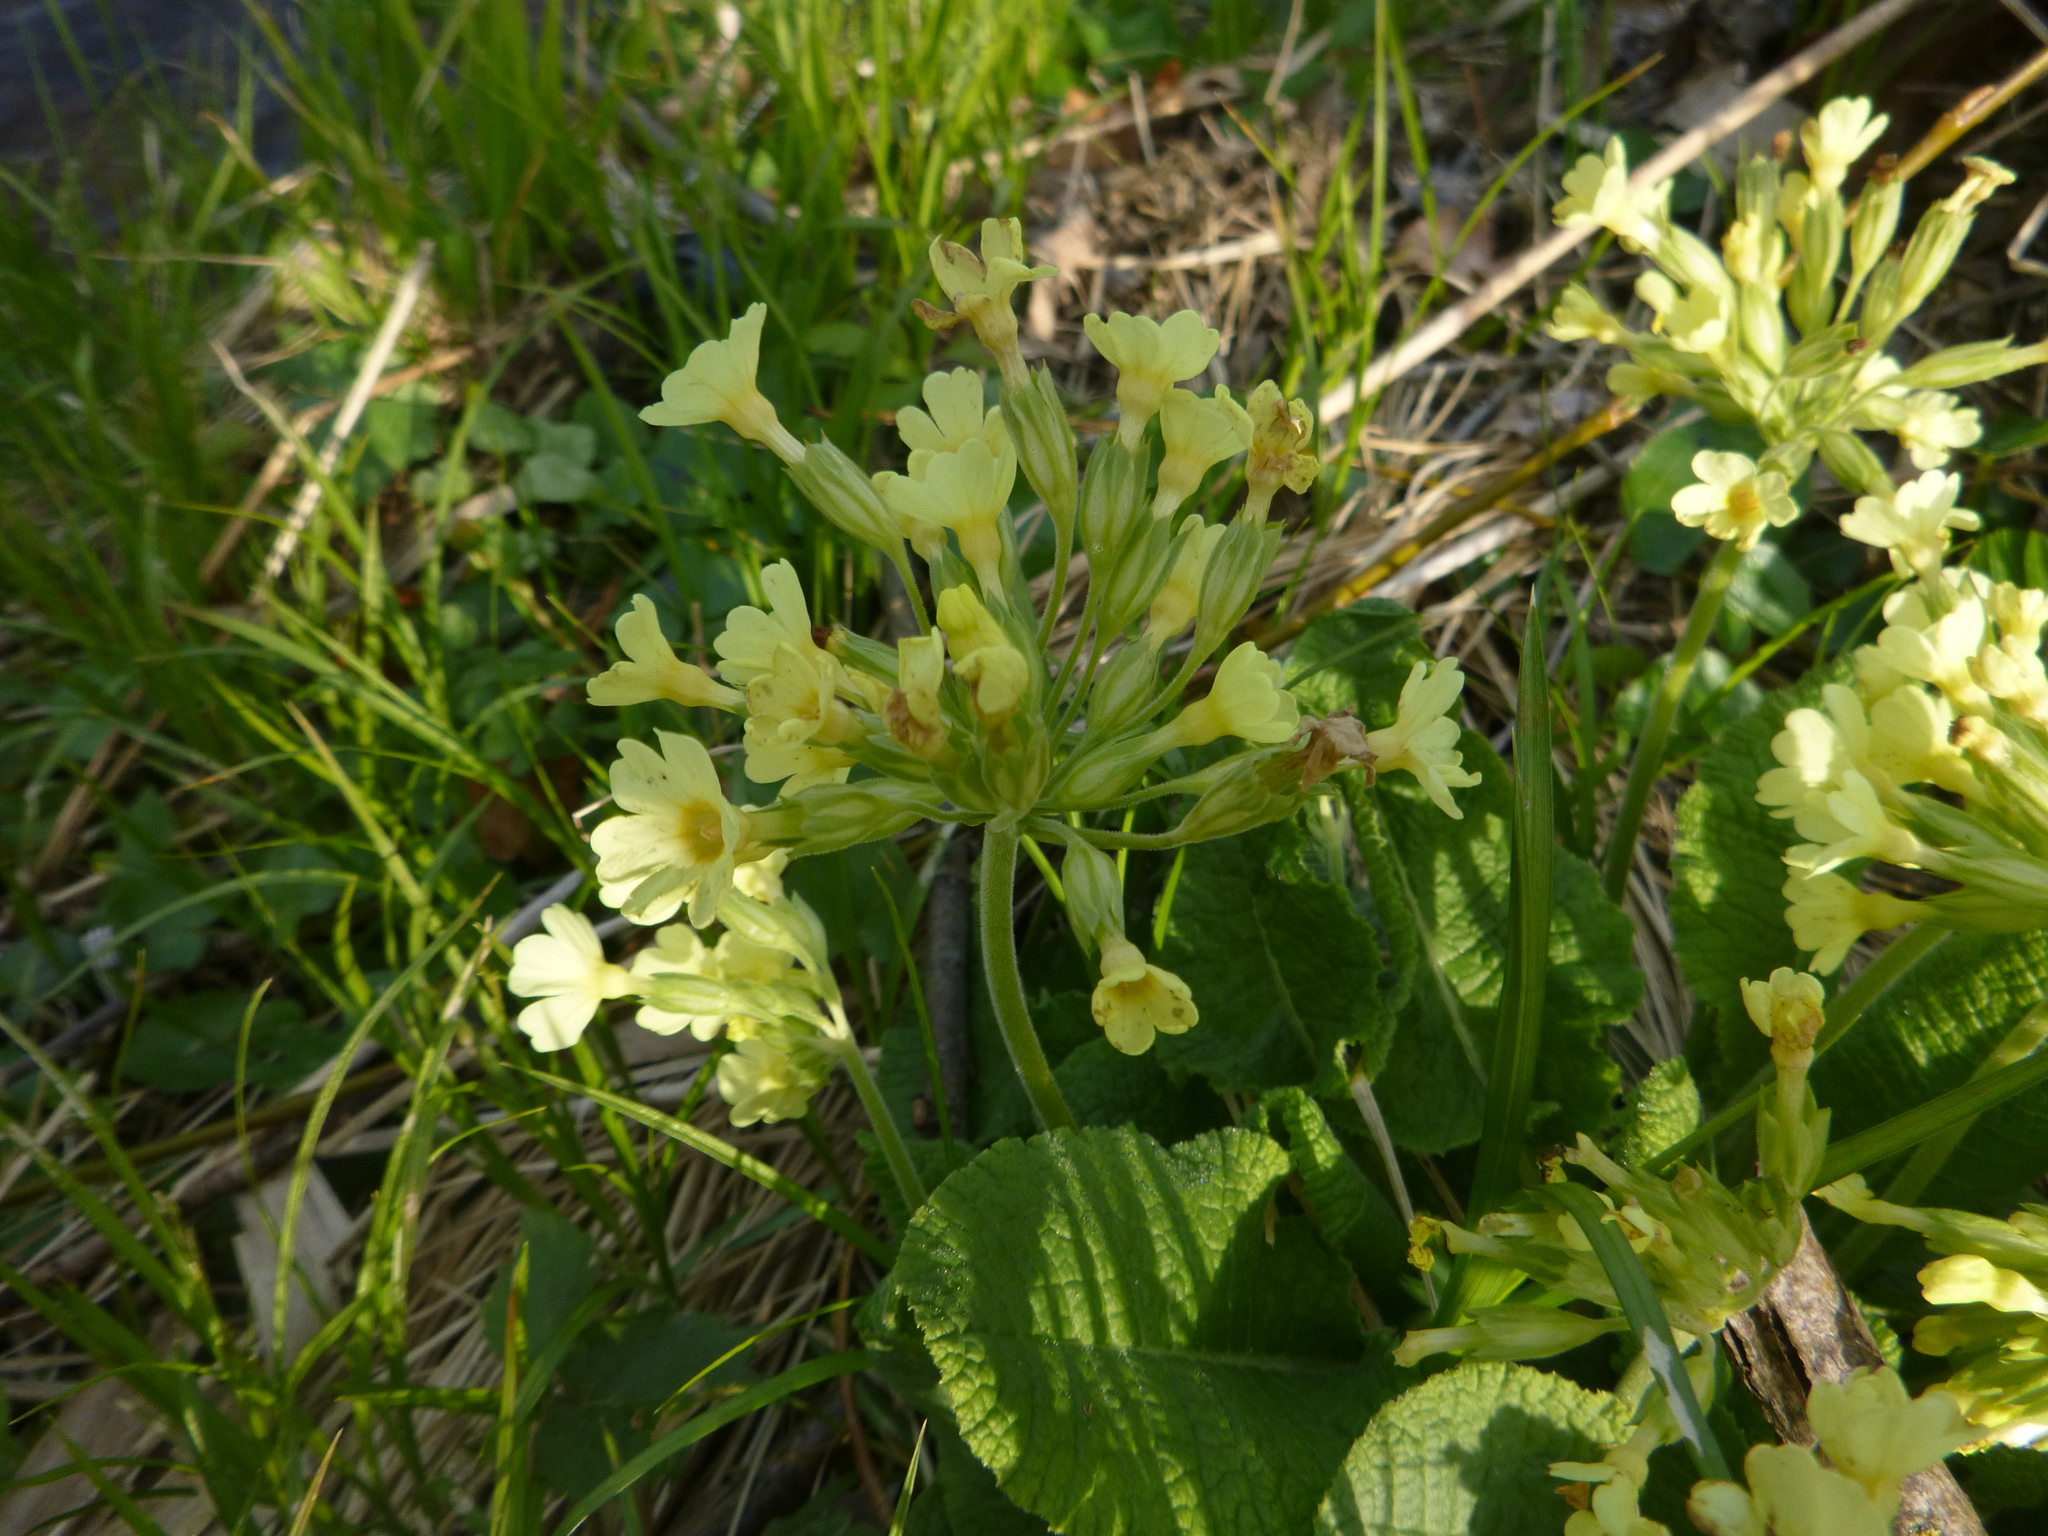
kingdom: Plantae
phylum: Tracheophyta
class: Magnoliopsida
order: Ericales
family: Primulaceae
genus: Primula
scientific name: Primula elatior
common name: Oxlip
